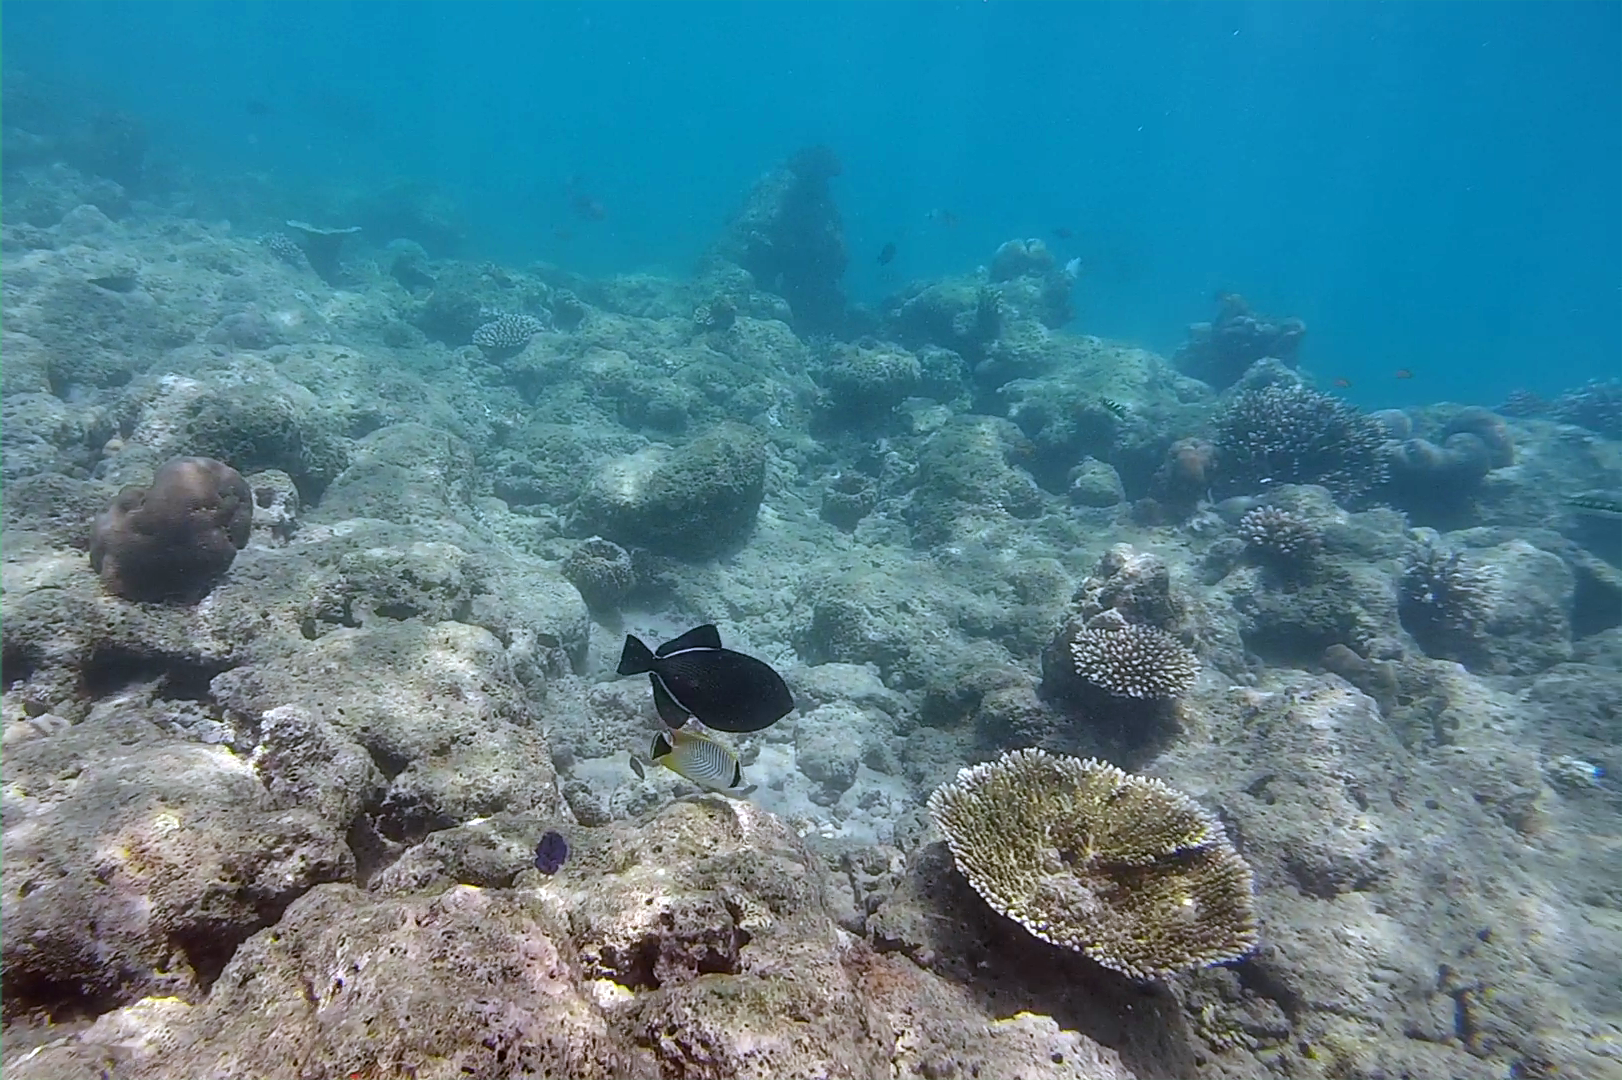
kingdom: Animalia
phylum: Chordata
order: Tetraodontiformes
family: Balistidae
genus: Melichthys
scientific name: Melichthys indicus
